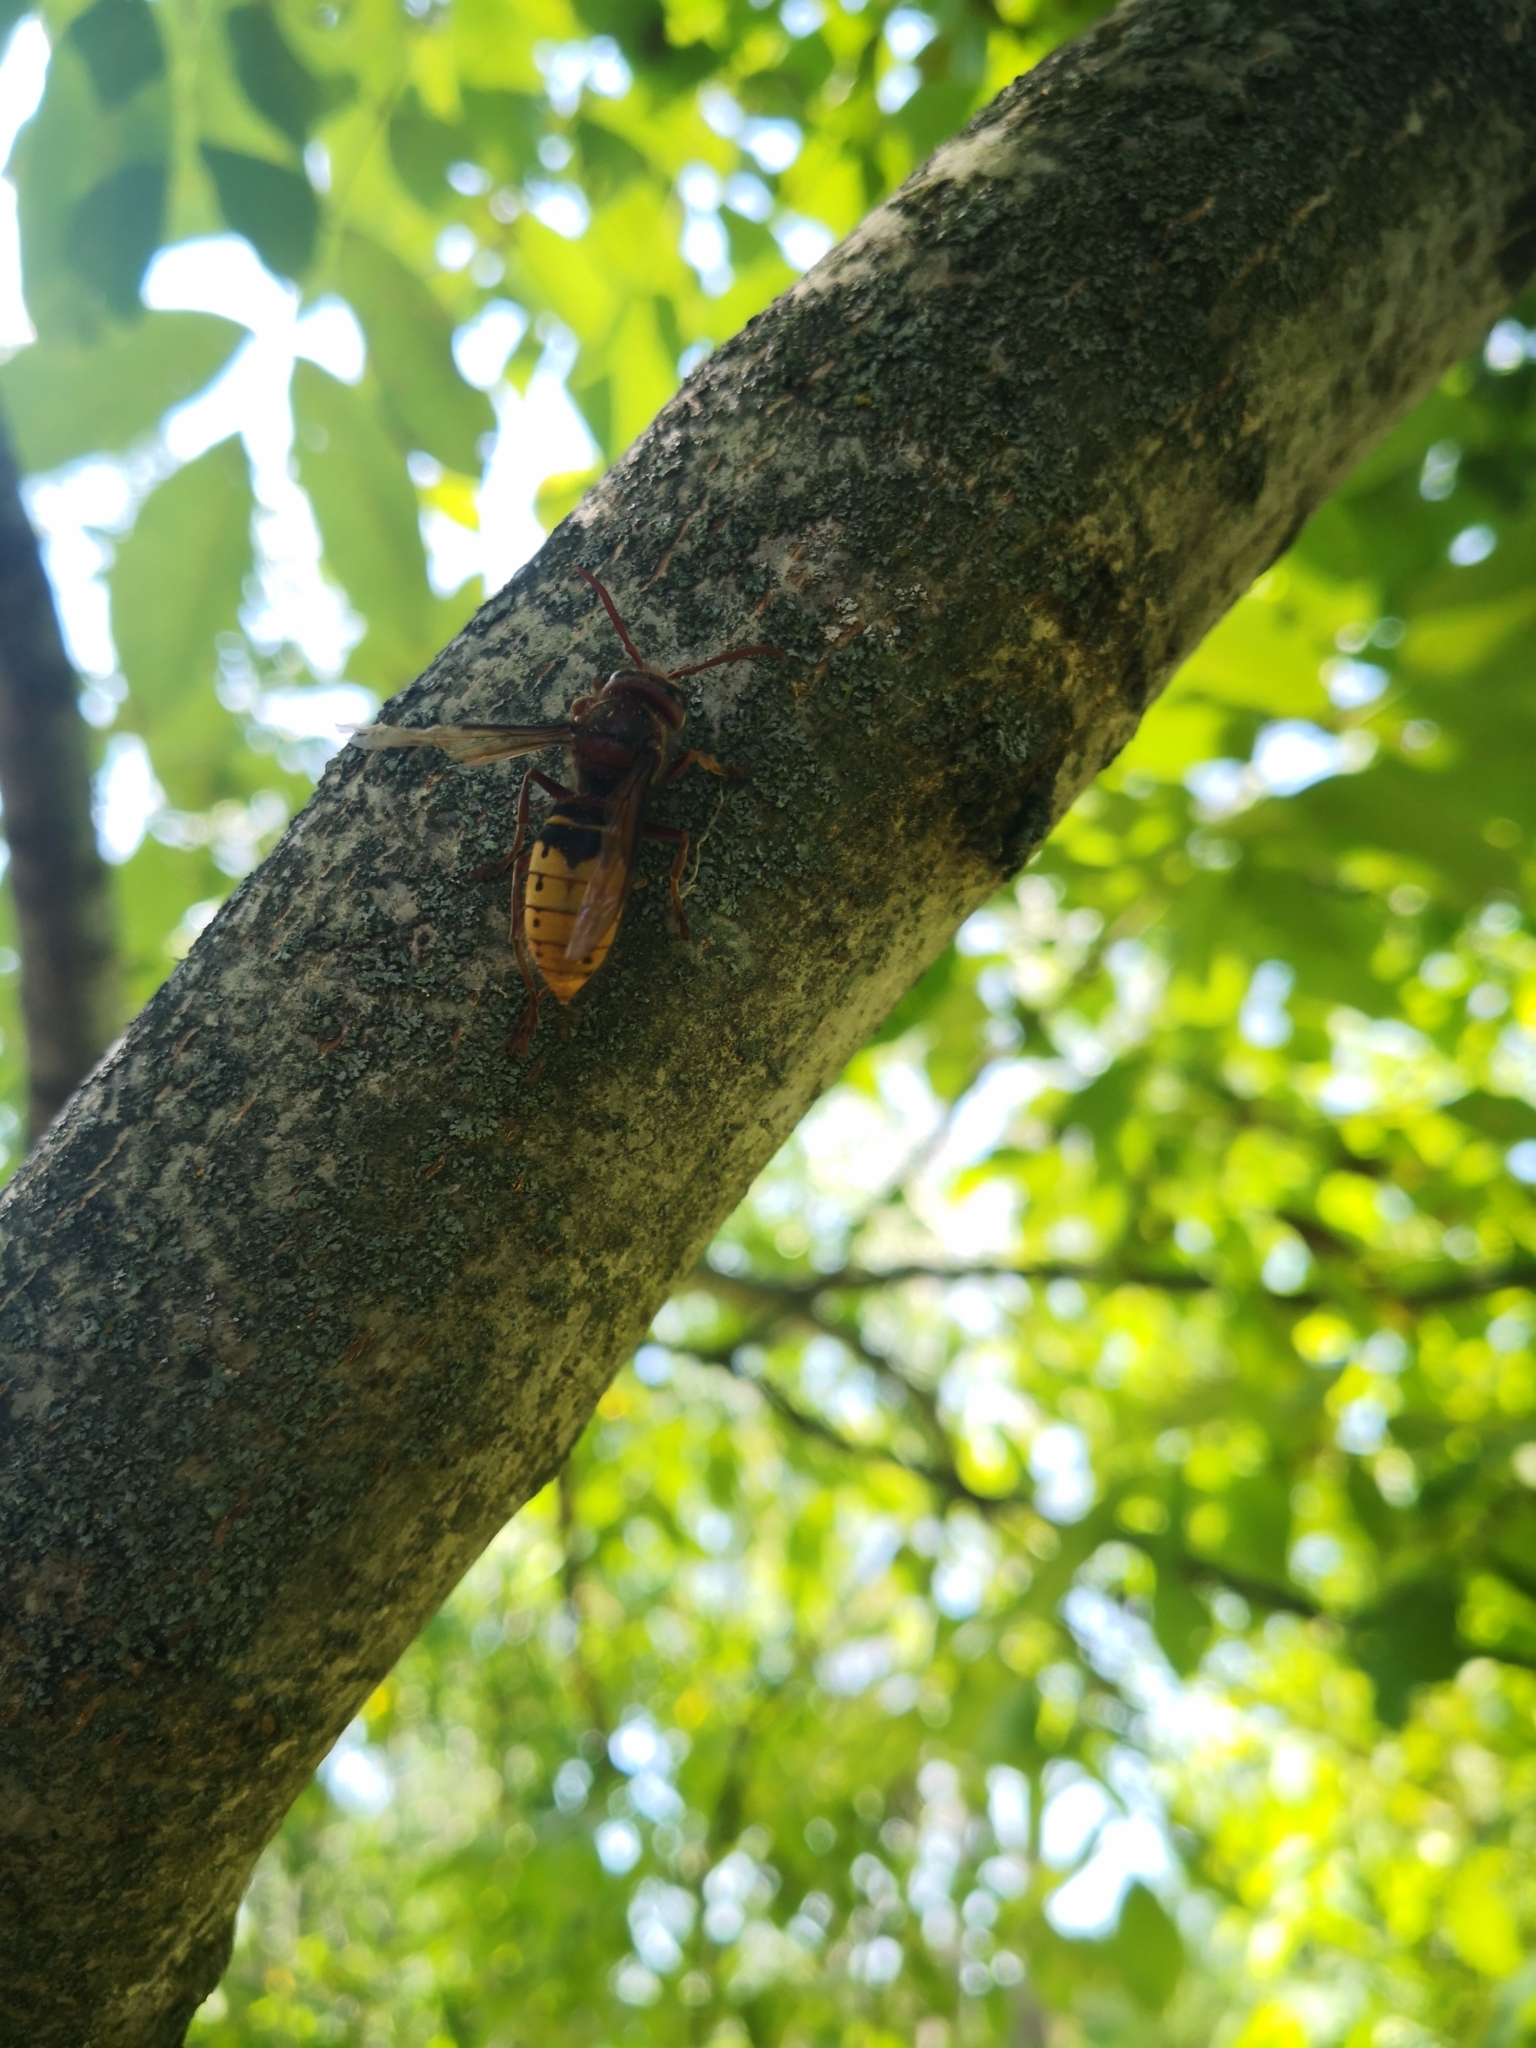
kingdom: Animalia
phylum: Arthropoda
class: Insecta
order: Hymenoptera
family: Vespidae
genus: Vespa
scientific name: Vespa crabro
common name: Hornet
